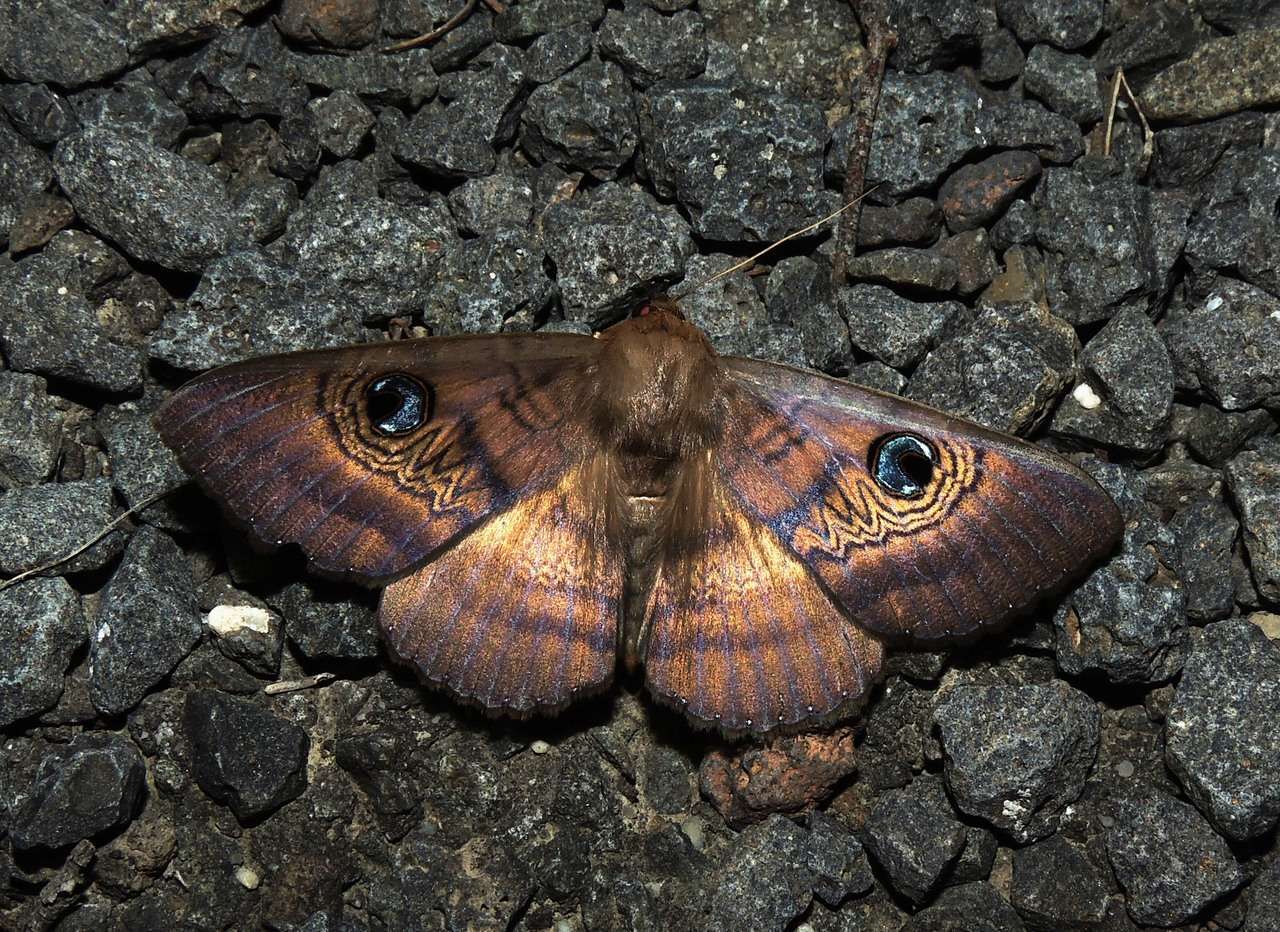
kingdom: Animalia
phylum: Arthropoda
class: Insecta
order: Lepidoptera
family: Erebidae
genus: Dasypodia
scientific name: Dasypodia selenophora
